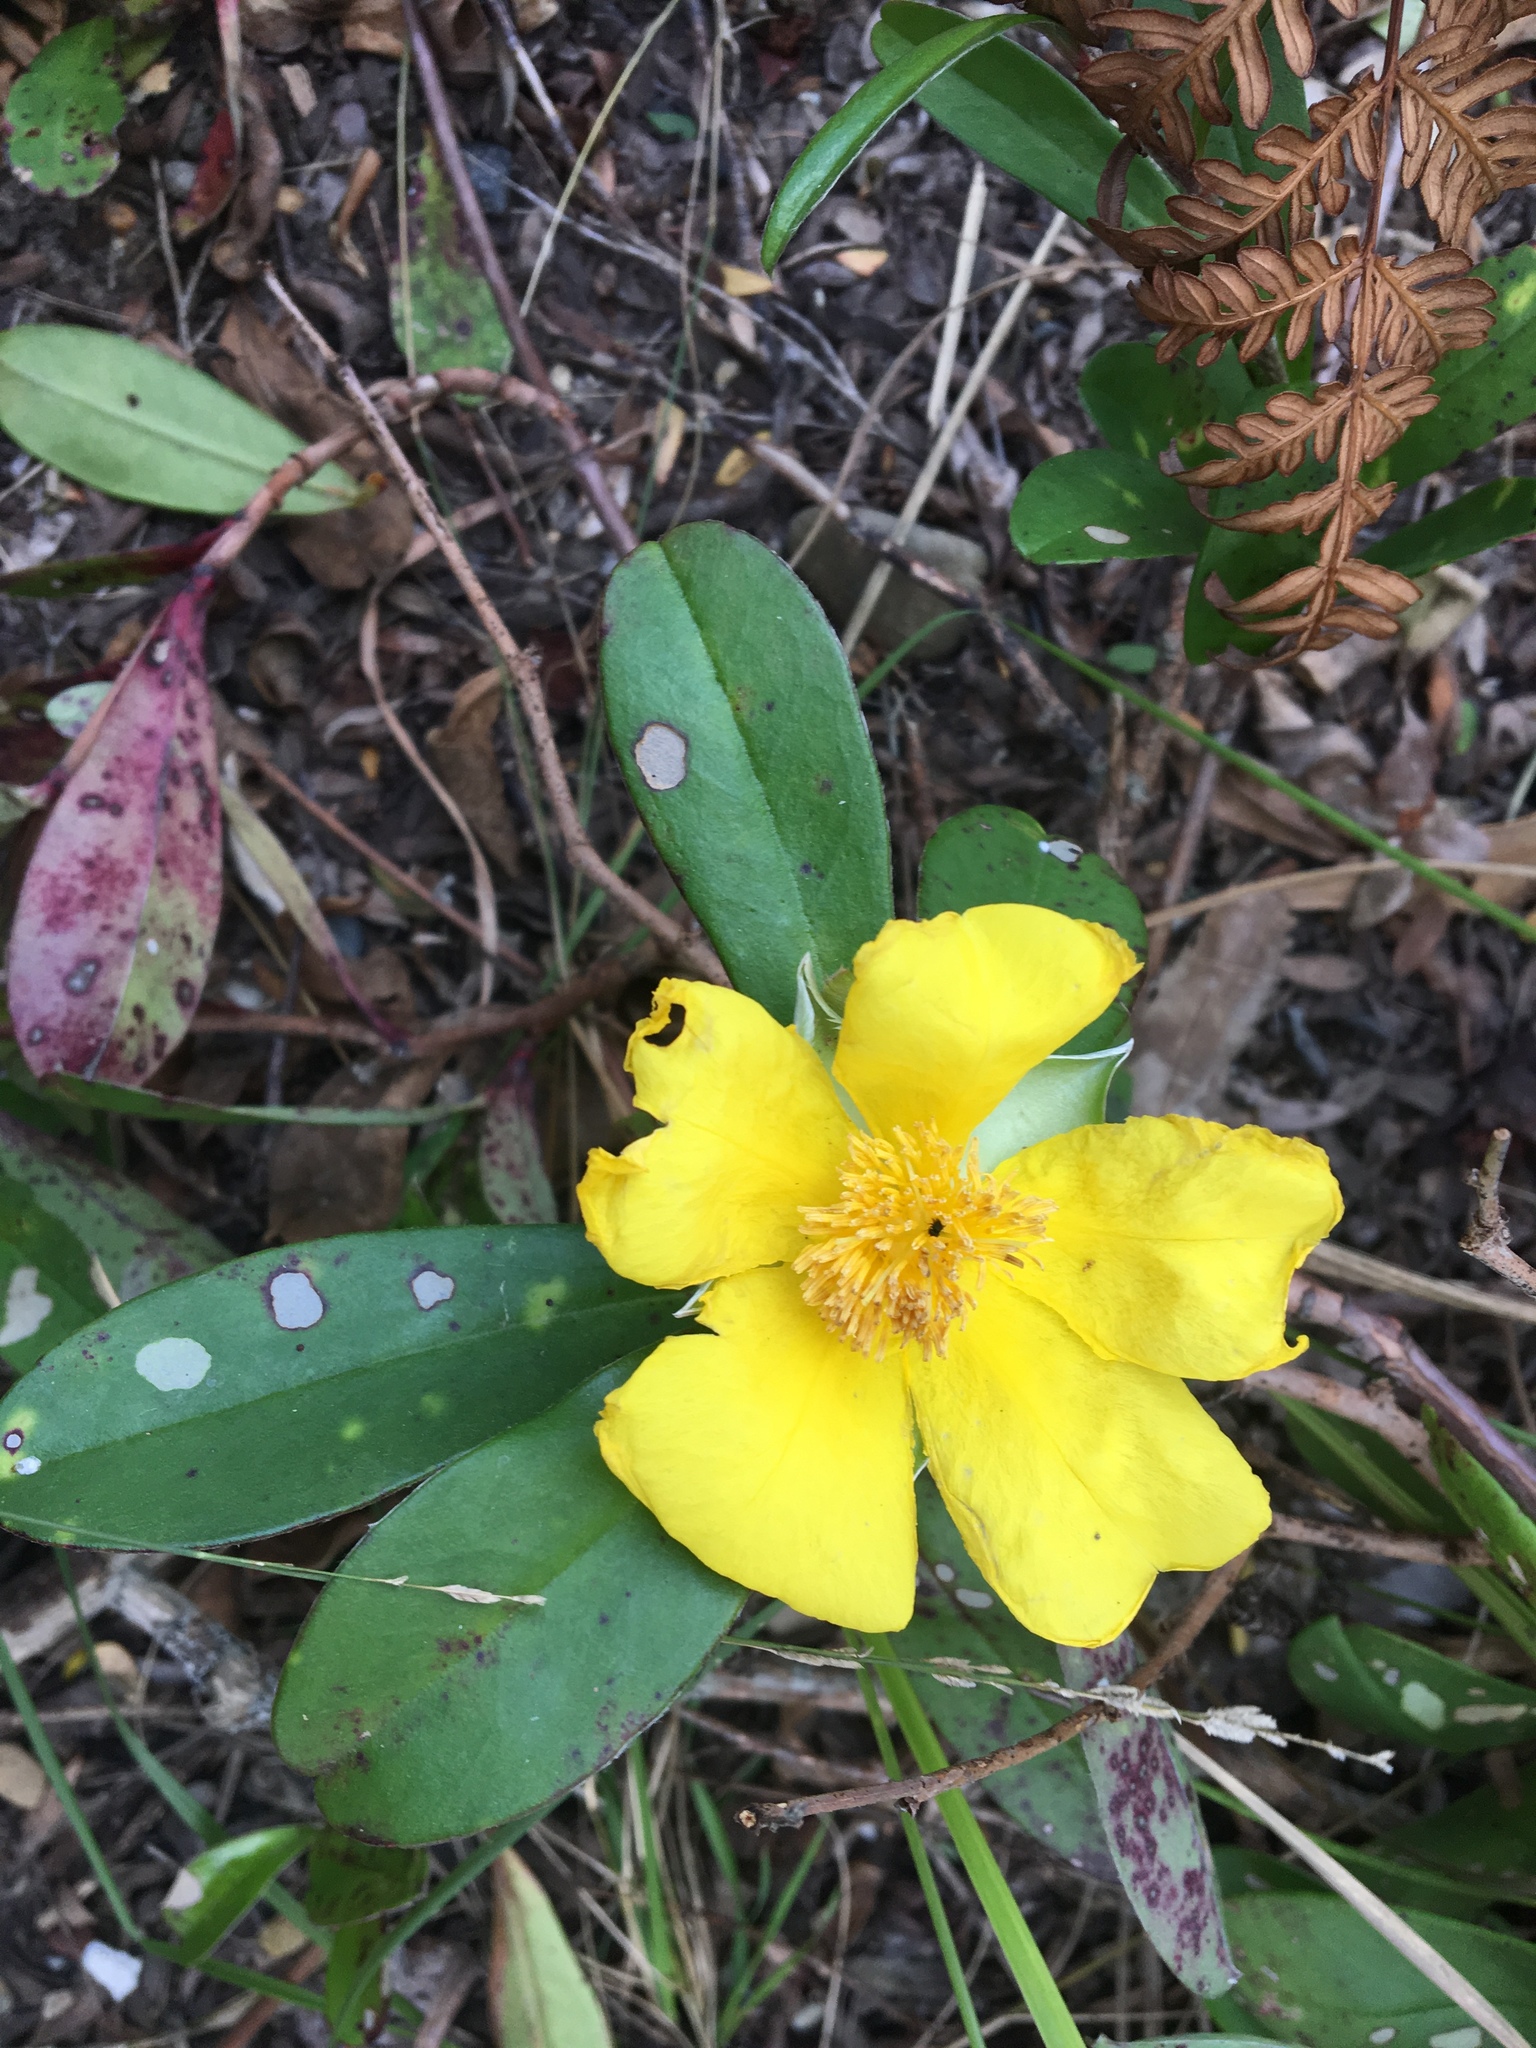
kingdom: Plantae
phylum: Tracheophyta
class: Magnoliopsida
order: Dilleniales
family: Dilleniaceae
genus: Hibbertia
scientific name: Hibbertia scandens
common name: Climbing guinea-flower
